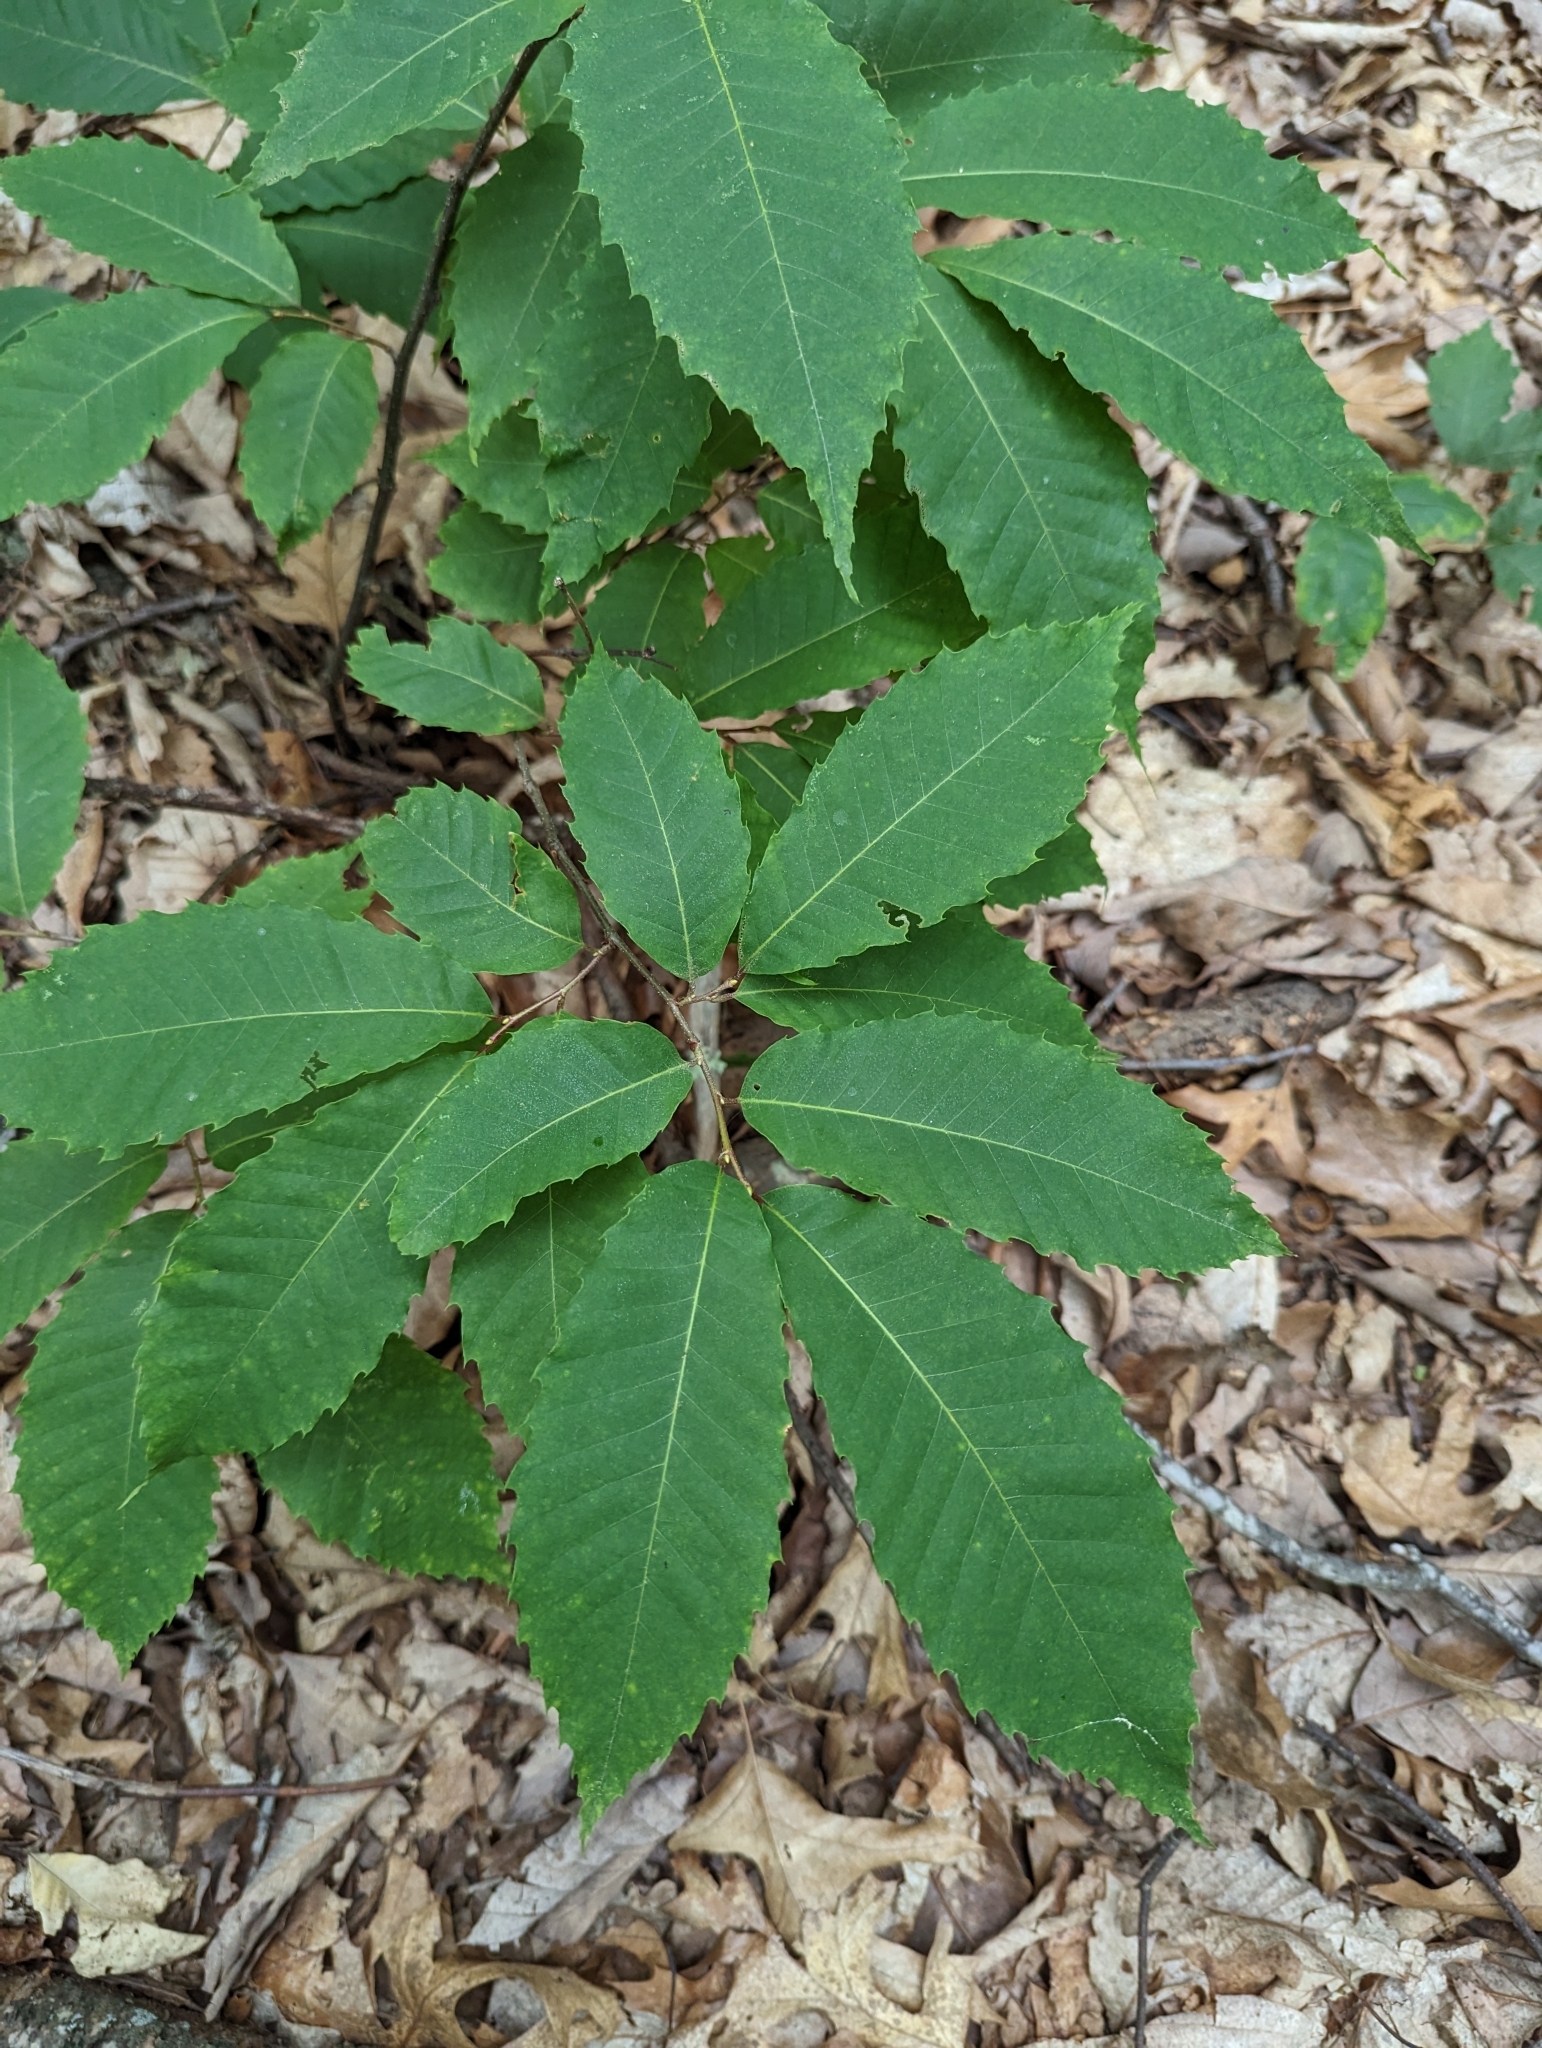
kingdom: Plantae
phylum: Tracheophyta
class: Magnoliopsida
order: Fagales
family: Fagaceae
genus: Castanea
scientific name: Castanea dentata
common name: American chestnut
